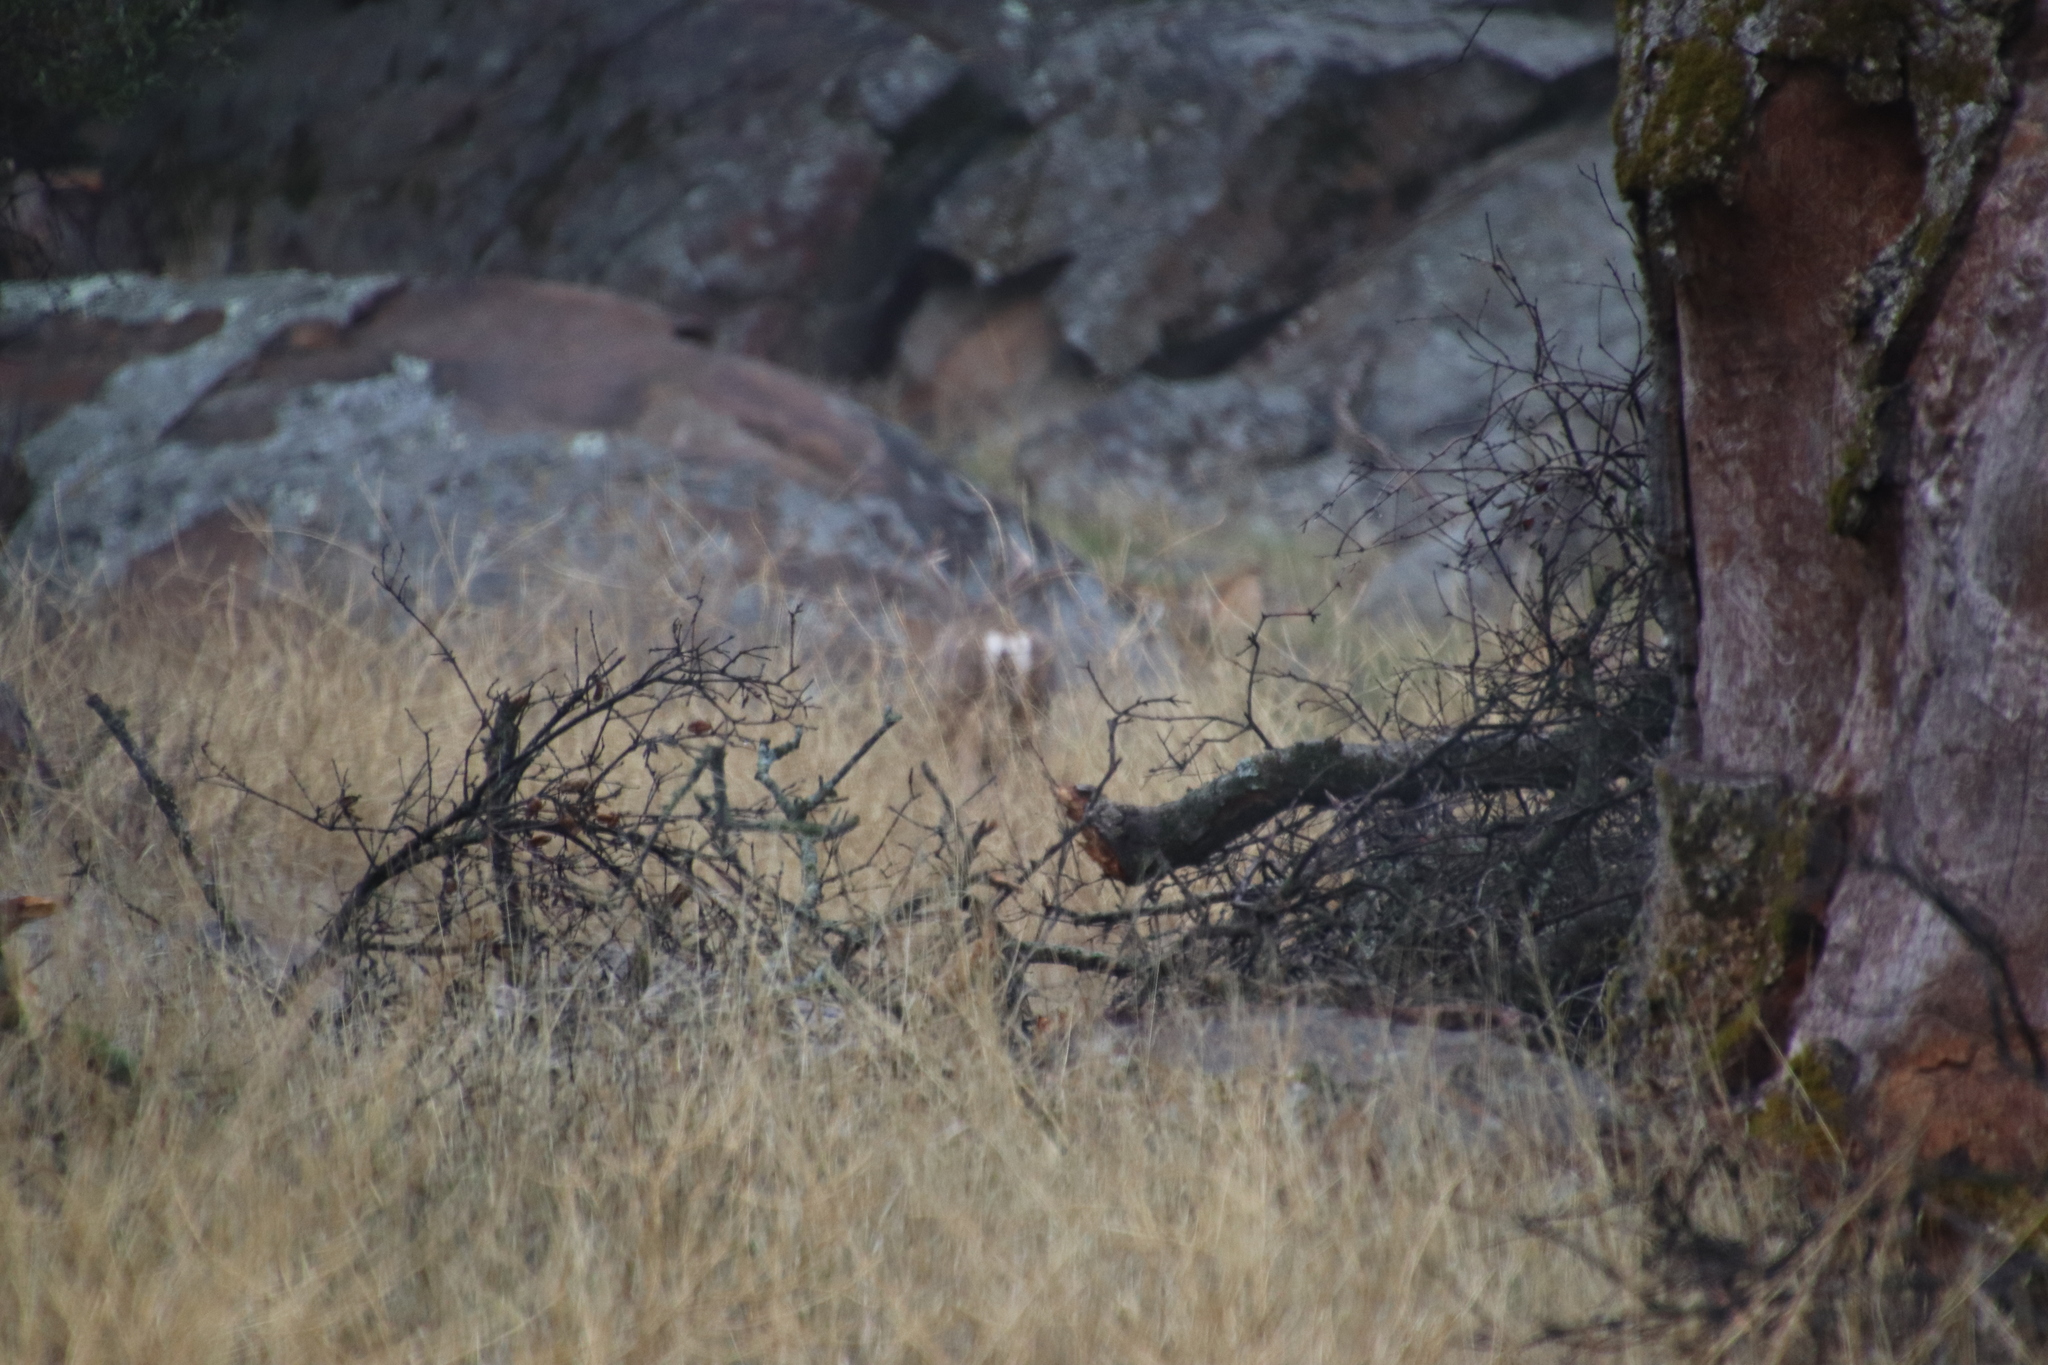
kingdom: Animalia
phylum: Chordata
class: Mammalia
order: Artiodactyla
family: Cervidae
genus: Odocoileus
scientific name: Odocoileus hemionus
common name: Mule deer
